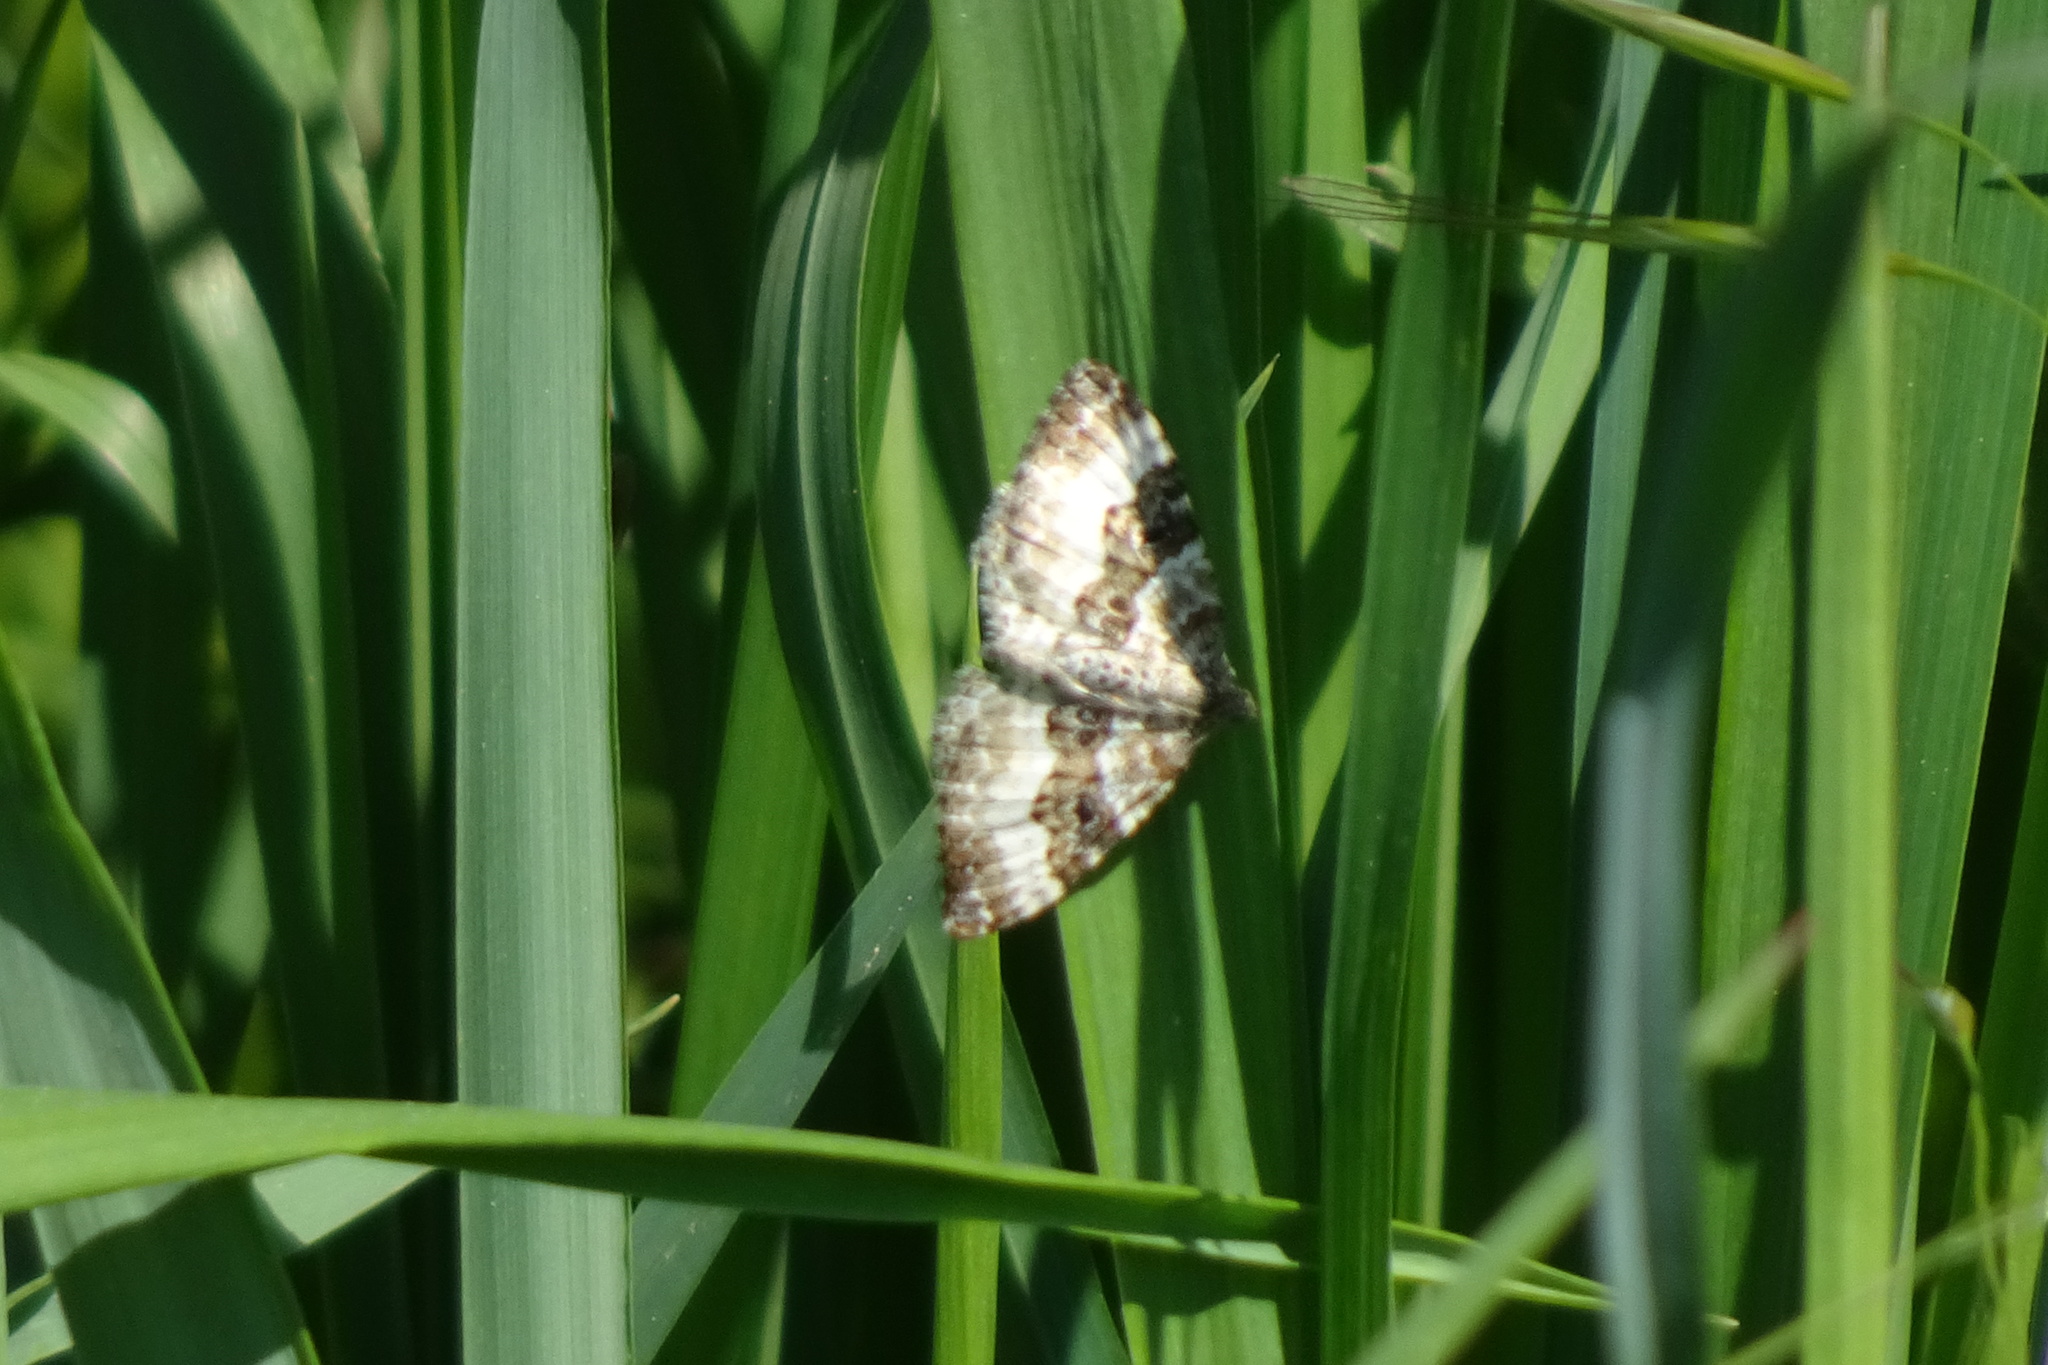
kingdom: Animalia
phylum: Arthropoda
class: Insecta
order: Lepidoptera
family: Geometridae
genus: Epirrhoe
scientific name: Epirrhoe alternata
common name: Common carpet
